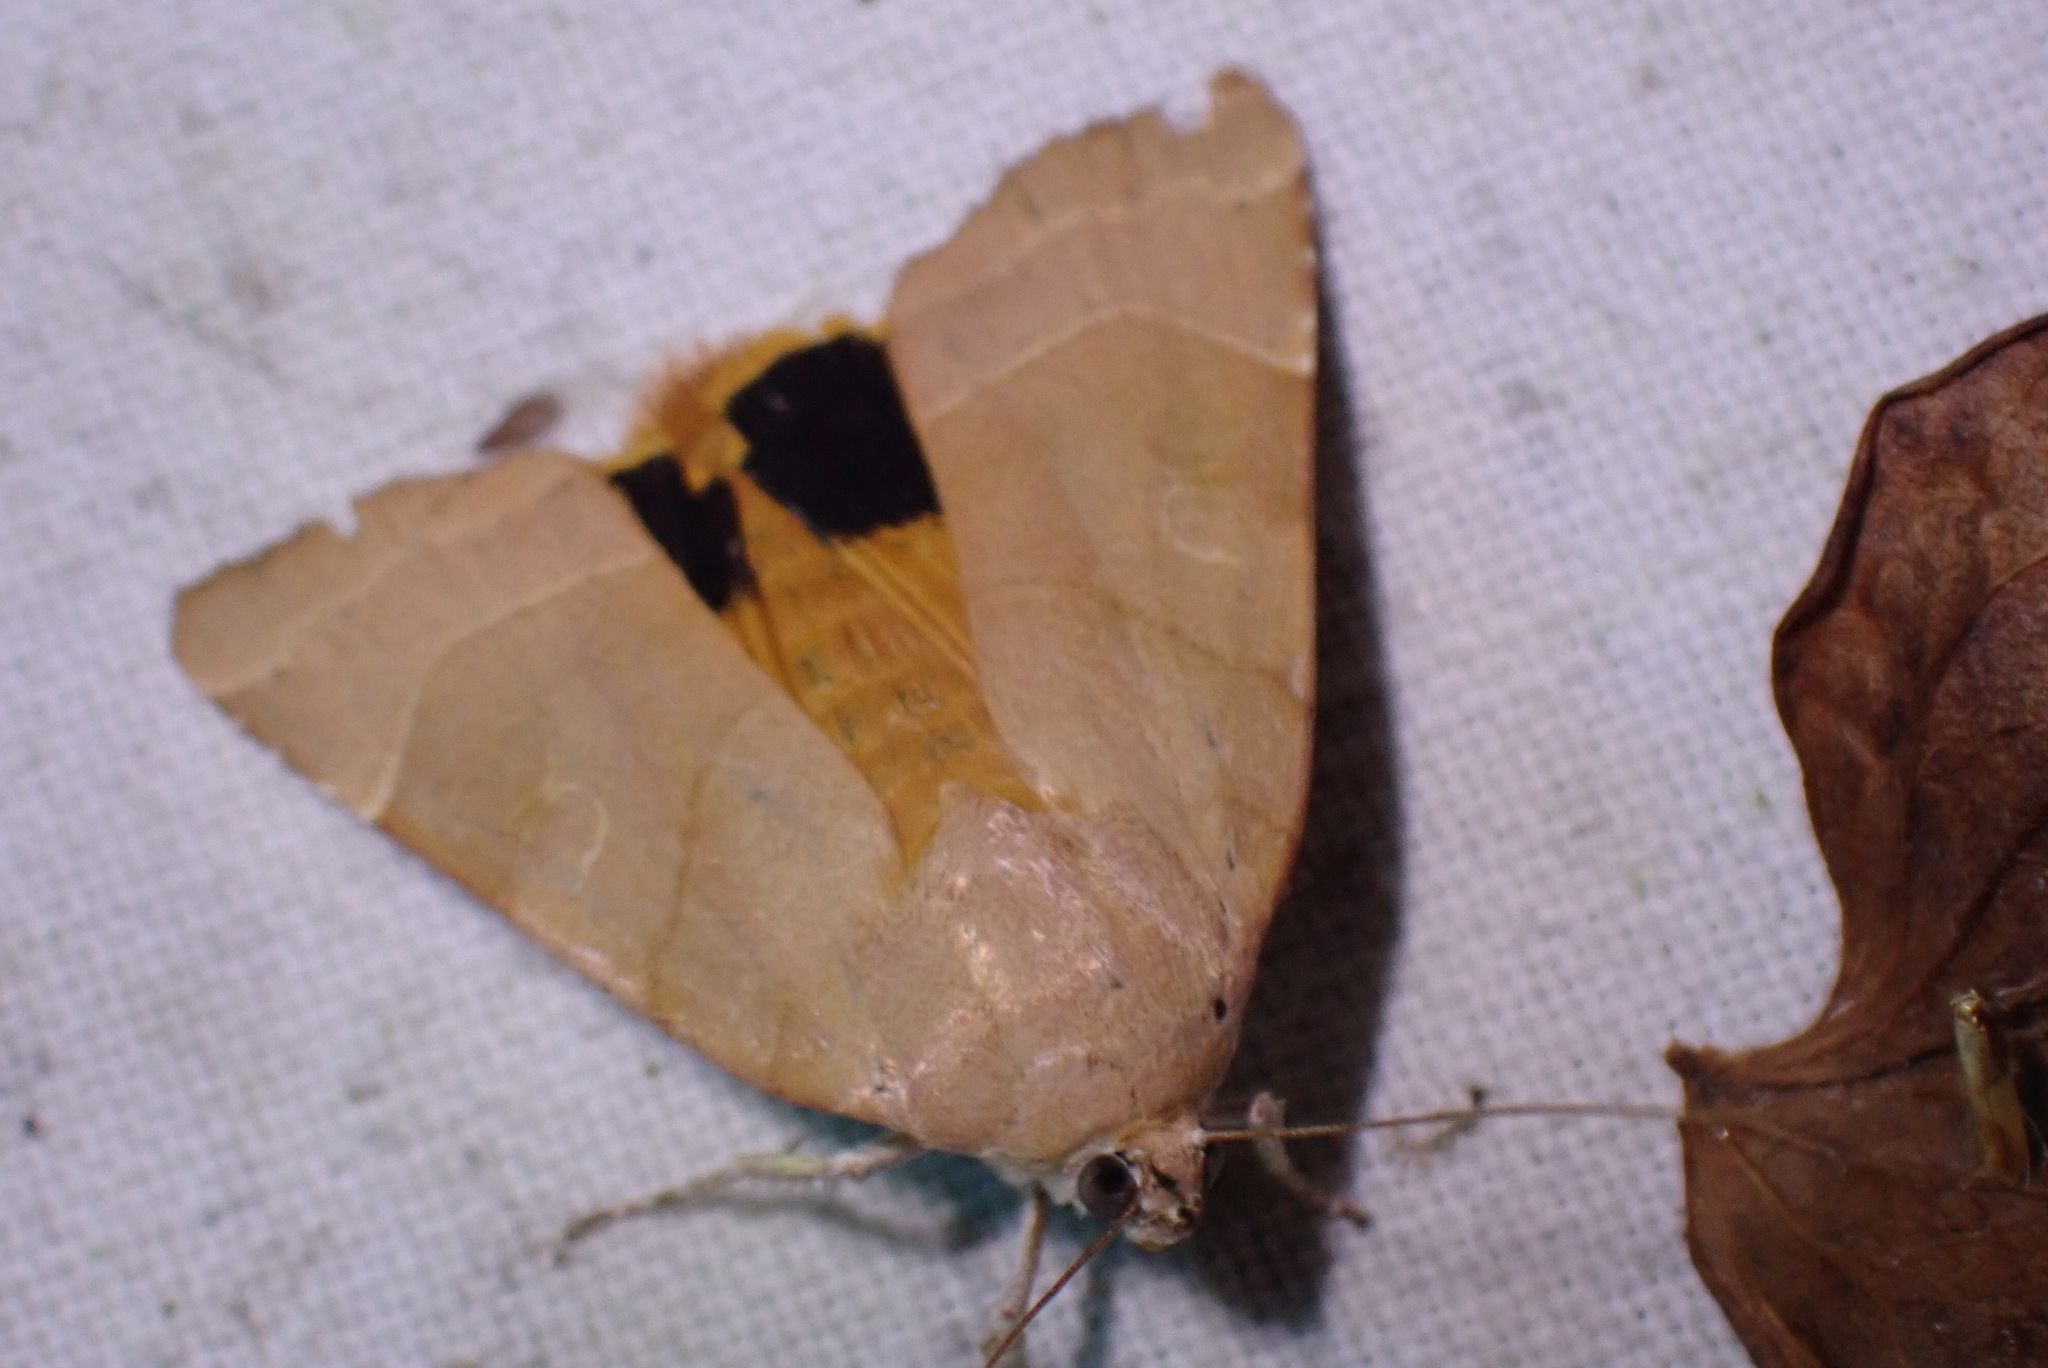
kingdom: Animalia
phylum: Arthropoda
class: Insecta
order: Lepidoptera
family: Noctuidae
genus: Noctua
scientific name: Noctua fimbriata
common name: Broad-bordered yellow underwing
